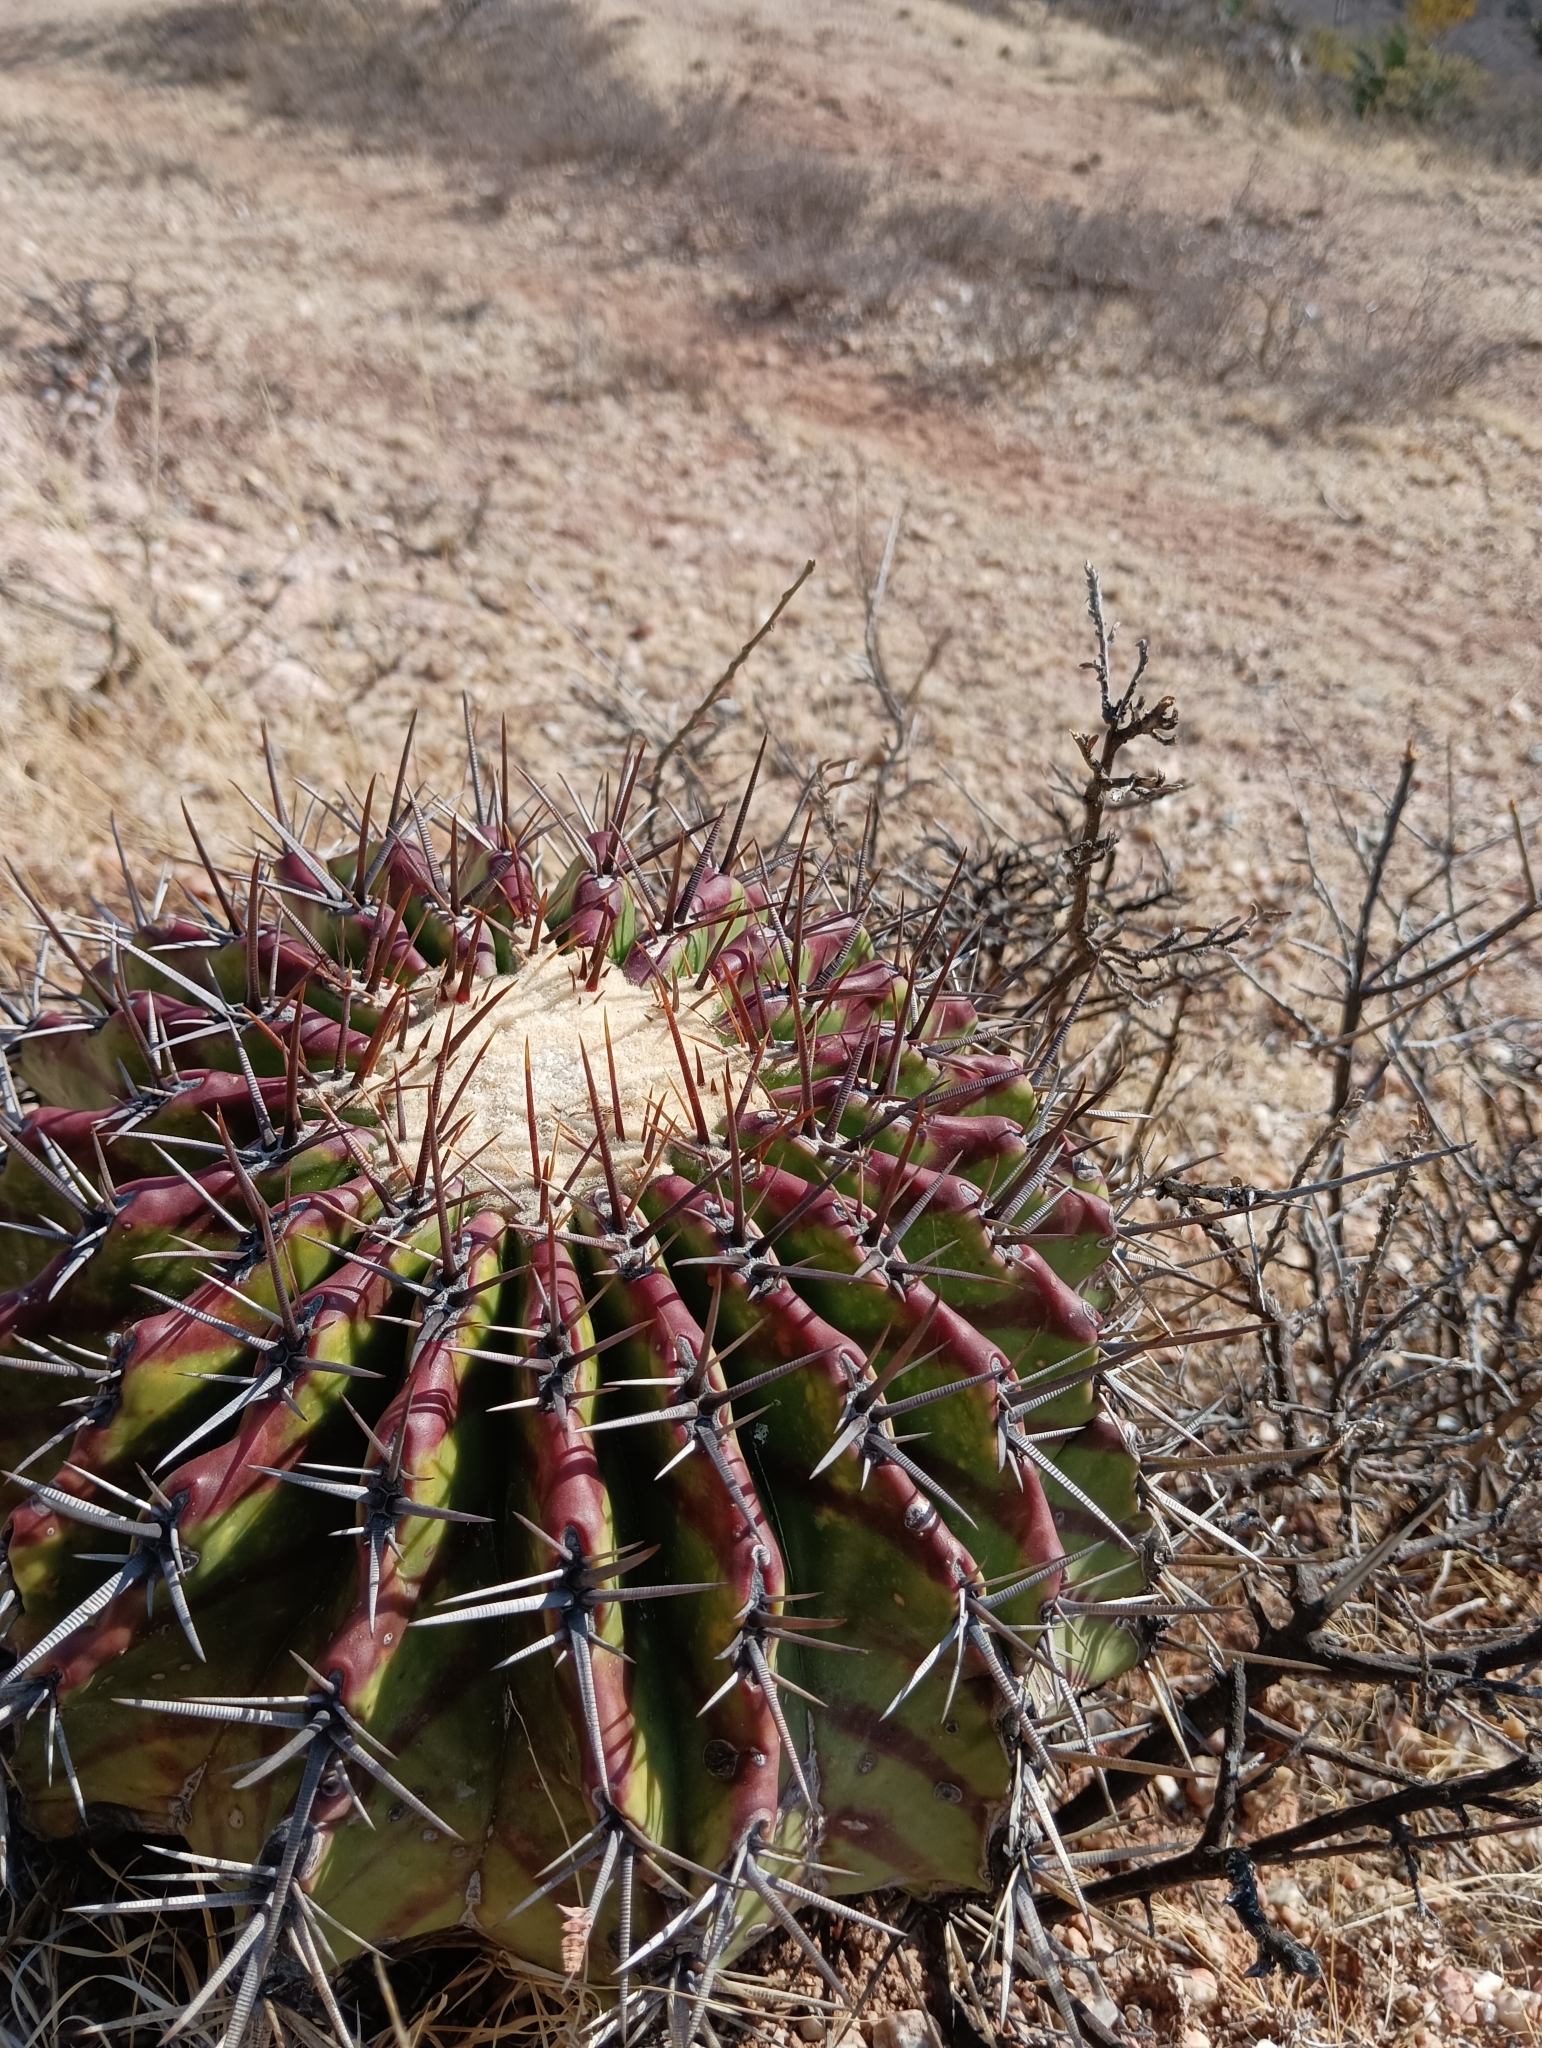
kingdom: Plantae
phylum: Tracheophyta
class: Magnoliopsida
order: Caryophyllales
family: Cactaceae
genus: Echinocactus
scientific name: Echinocactus platyacanthus
